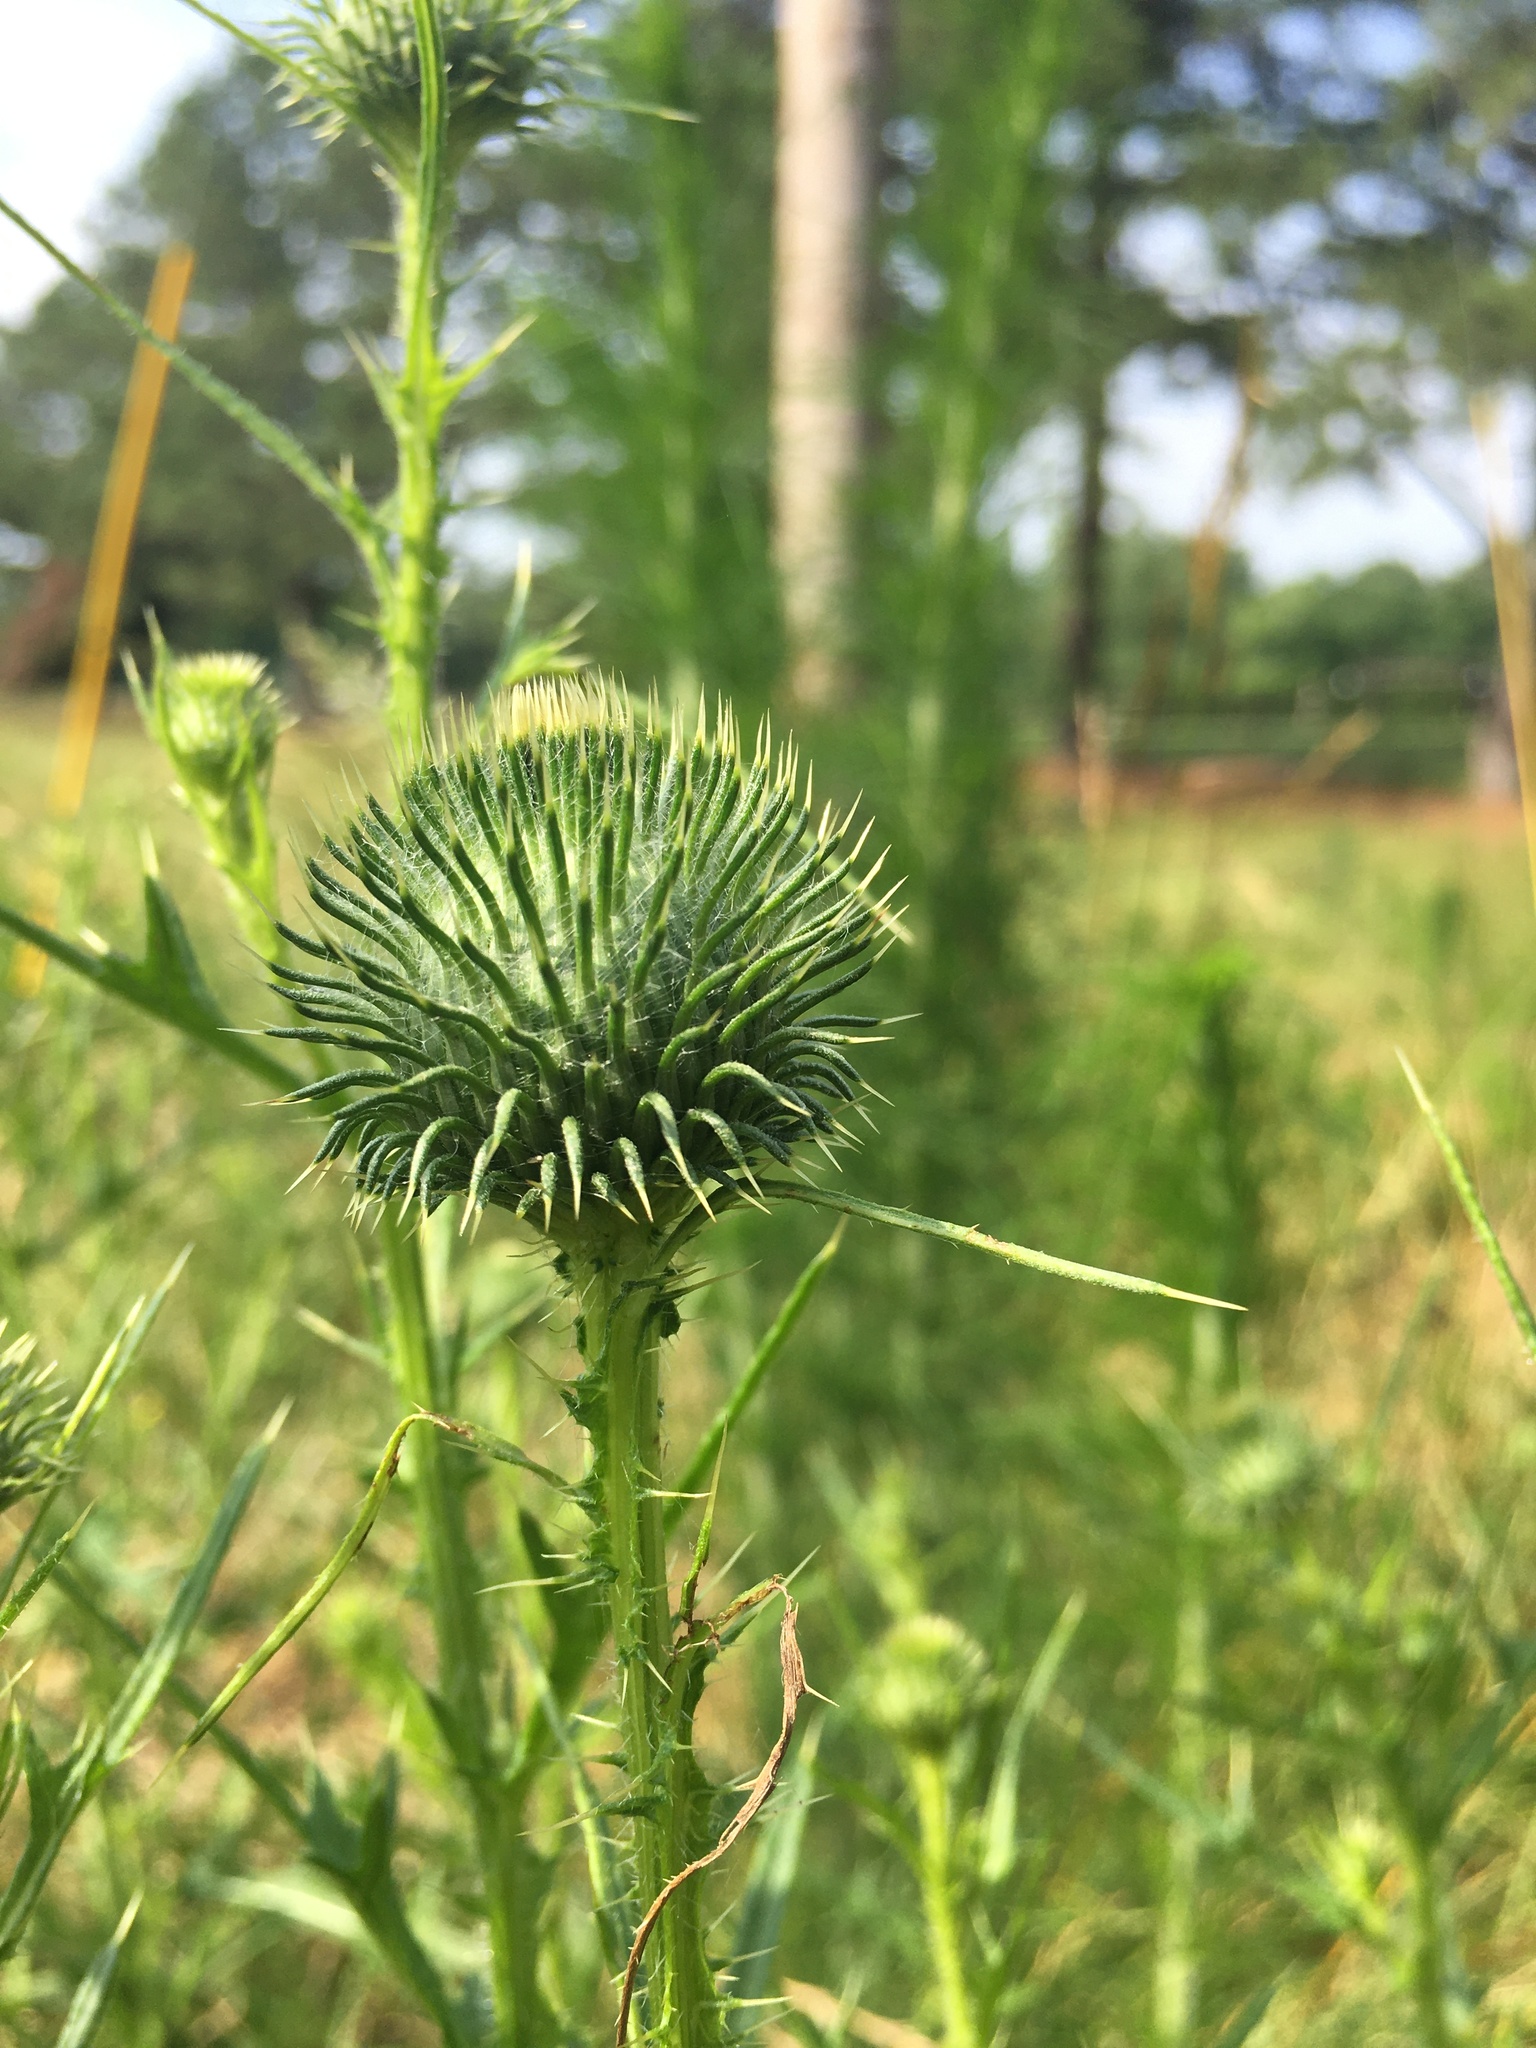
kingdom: Plantae
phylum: Tracheophyta
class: Magnoliopsida
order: Asterales
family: Asteraceae
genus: Cirsium
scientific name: Cirsium vulgare
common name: Bull thistle
